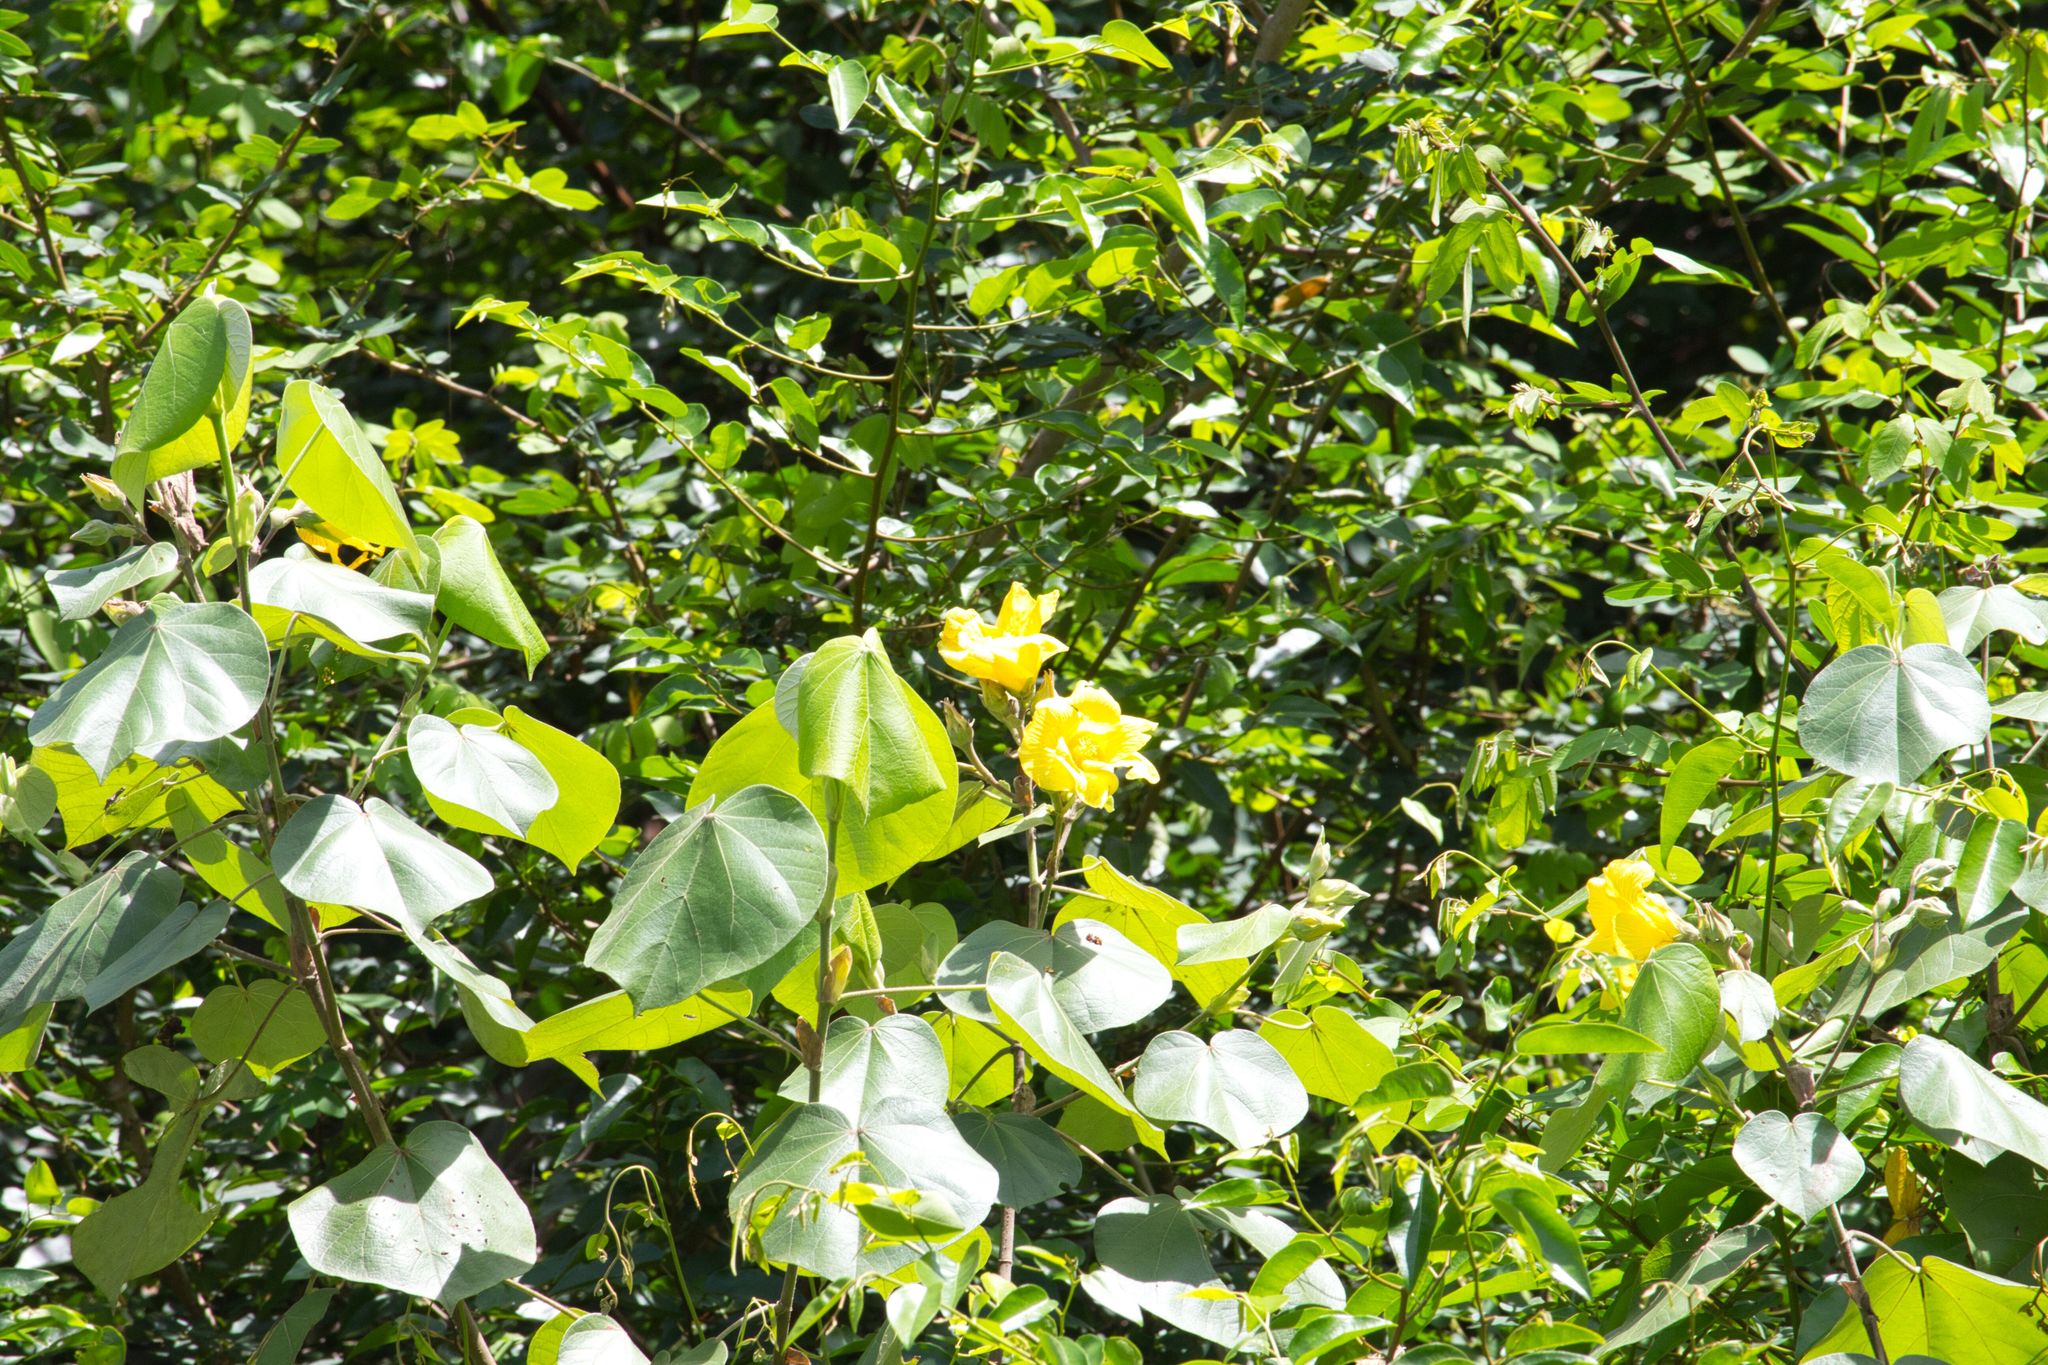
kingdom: Plantae
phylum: Tracheophyta
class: Magnoliopsida
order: Malvales
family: Malvaceae
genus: Talipariti
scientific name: Talipariti pernambucense
